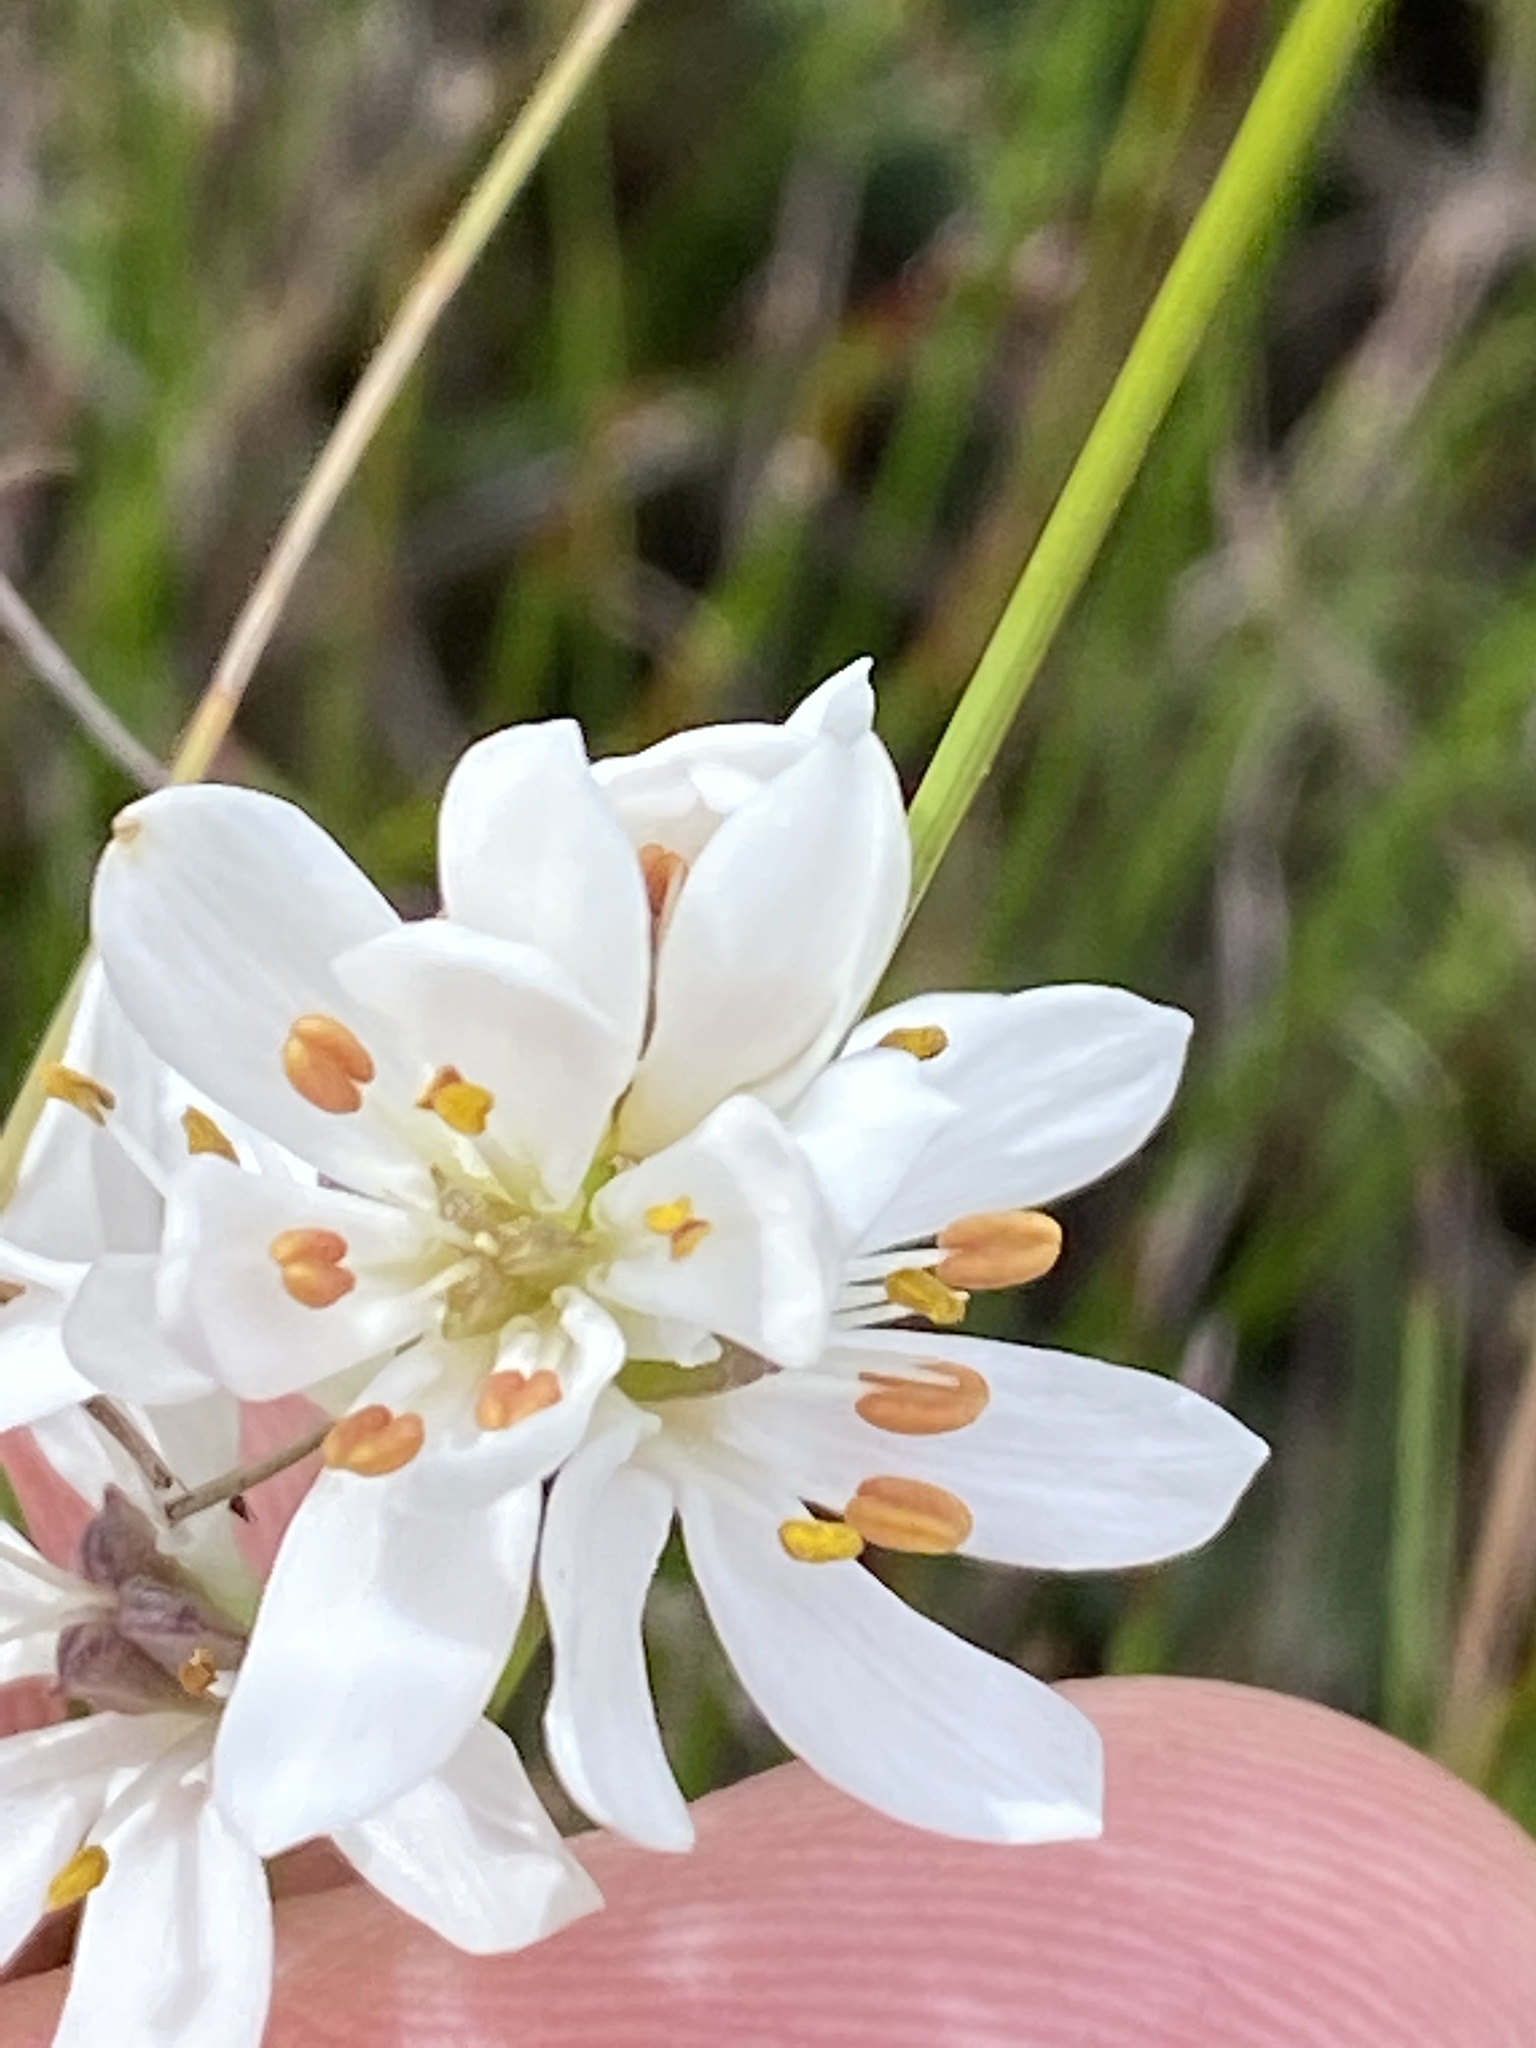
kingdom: Plantae
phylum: Tracheophyta
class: Liliopsida
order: Liliales
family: Colchicaceae
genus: Wurmbea
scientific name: Wurmbea punctata
